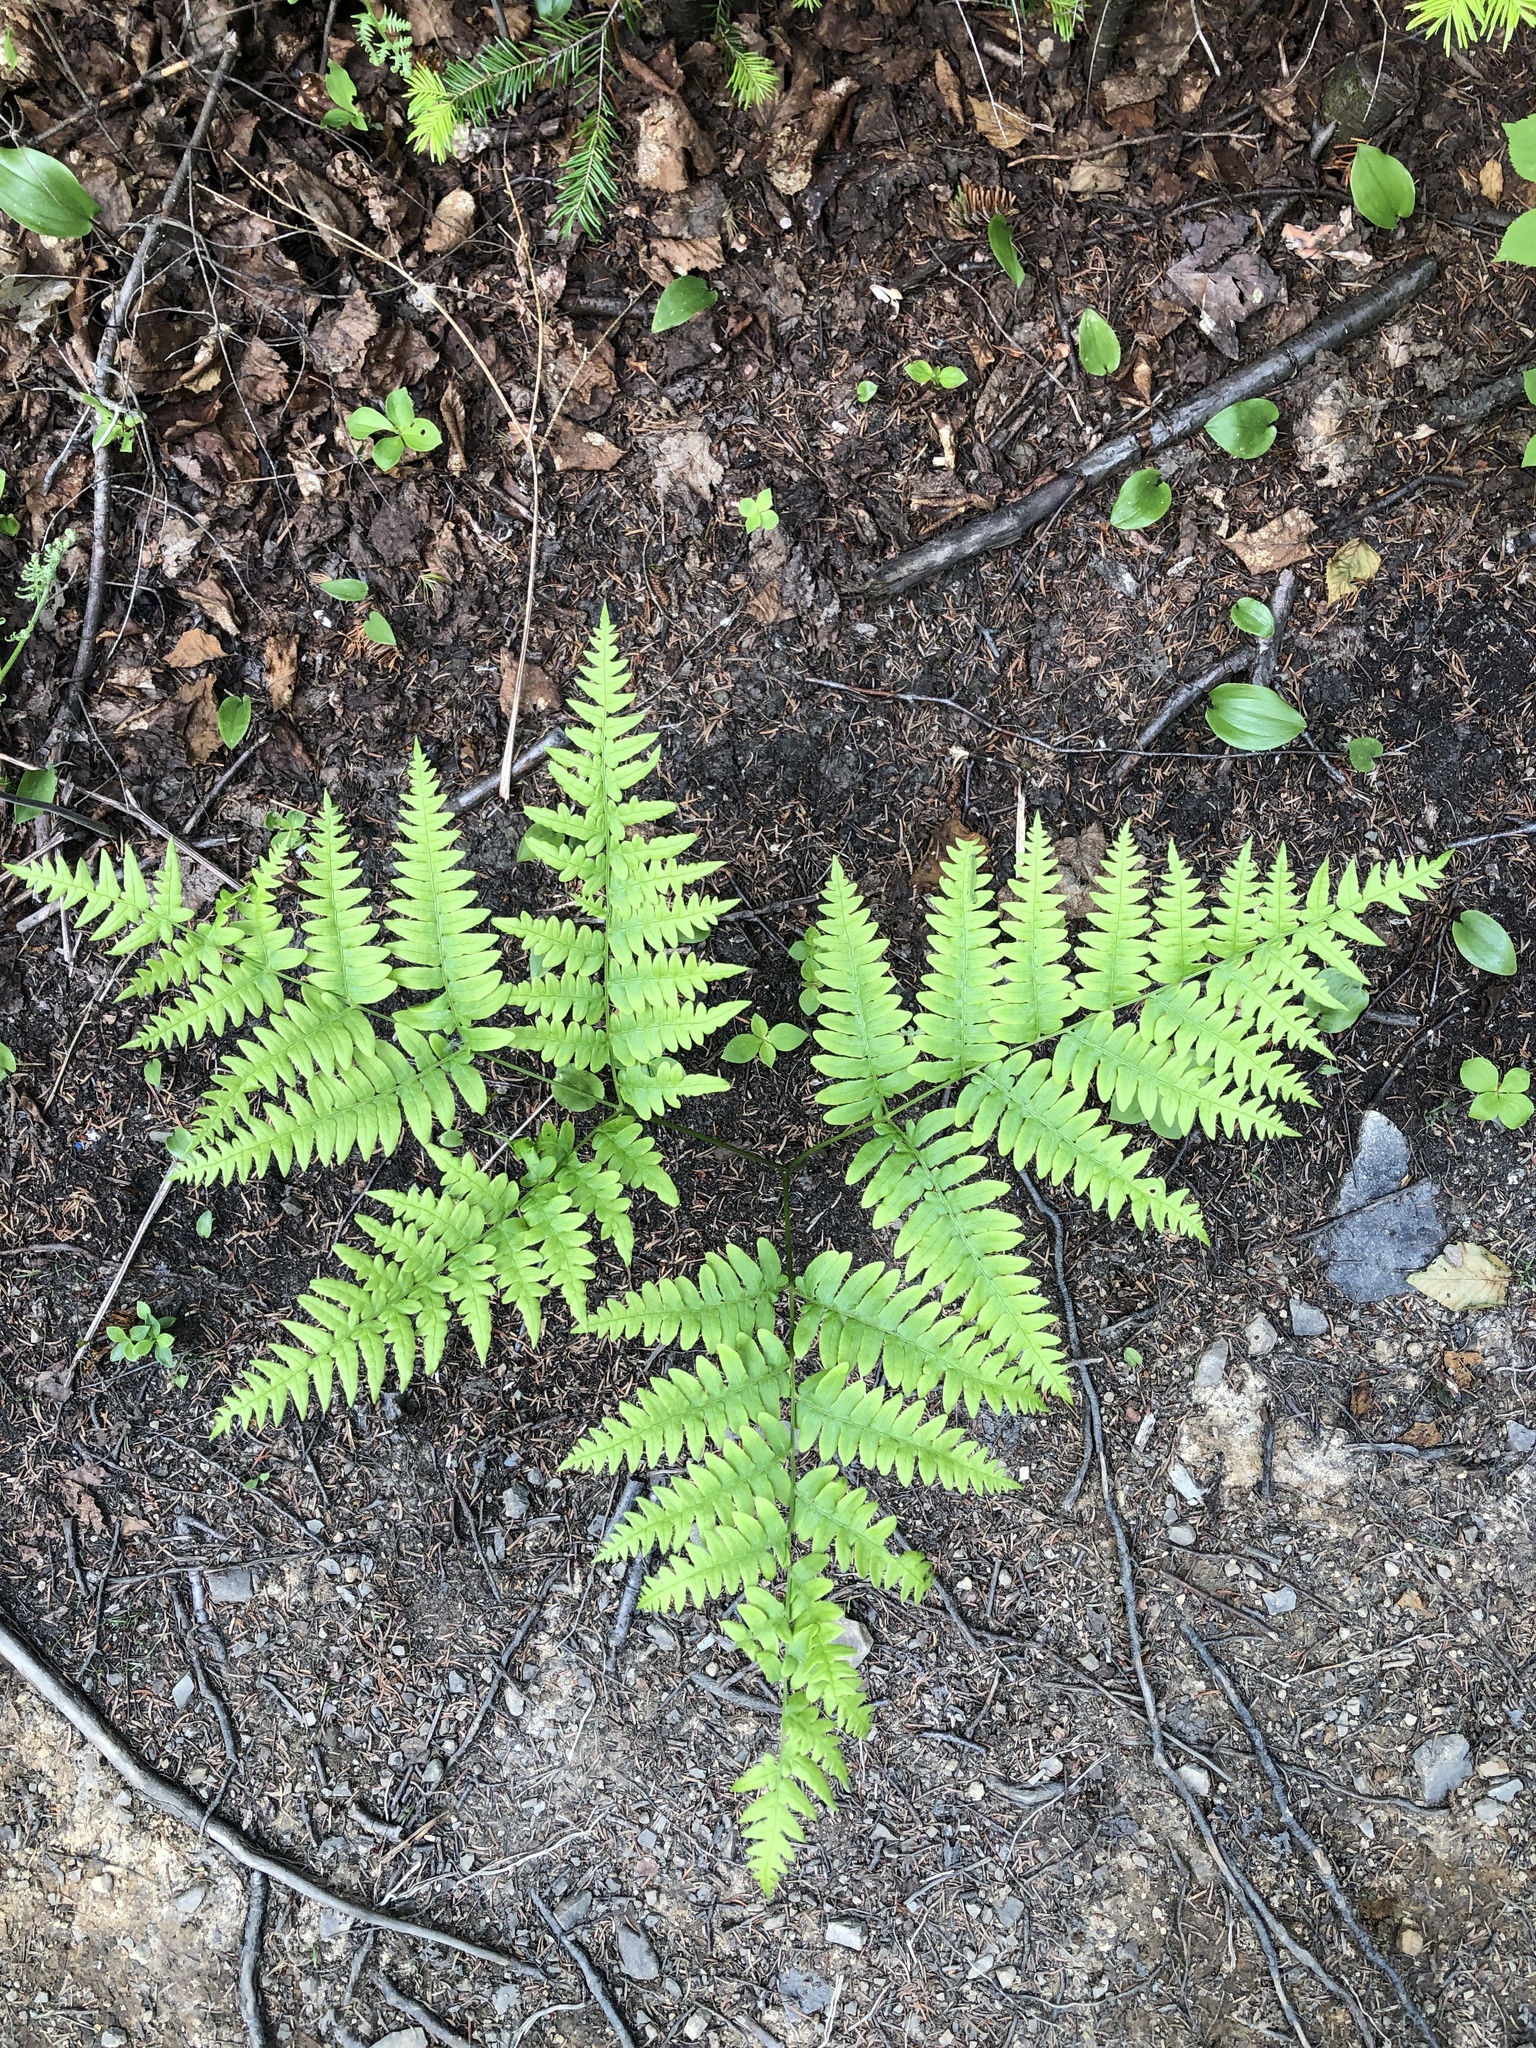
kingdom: Plantae
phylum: Tracheophyta
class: Polypodiopsida
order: Polypodiales
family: Dennstaedtiaceae
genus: Pteridium
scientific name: Pteridium aquilinum
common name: Bracken
